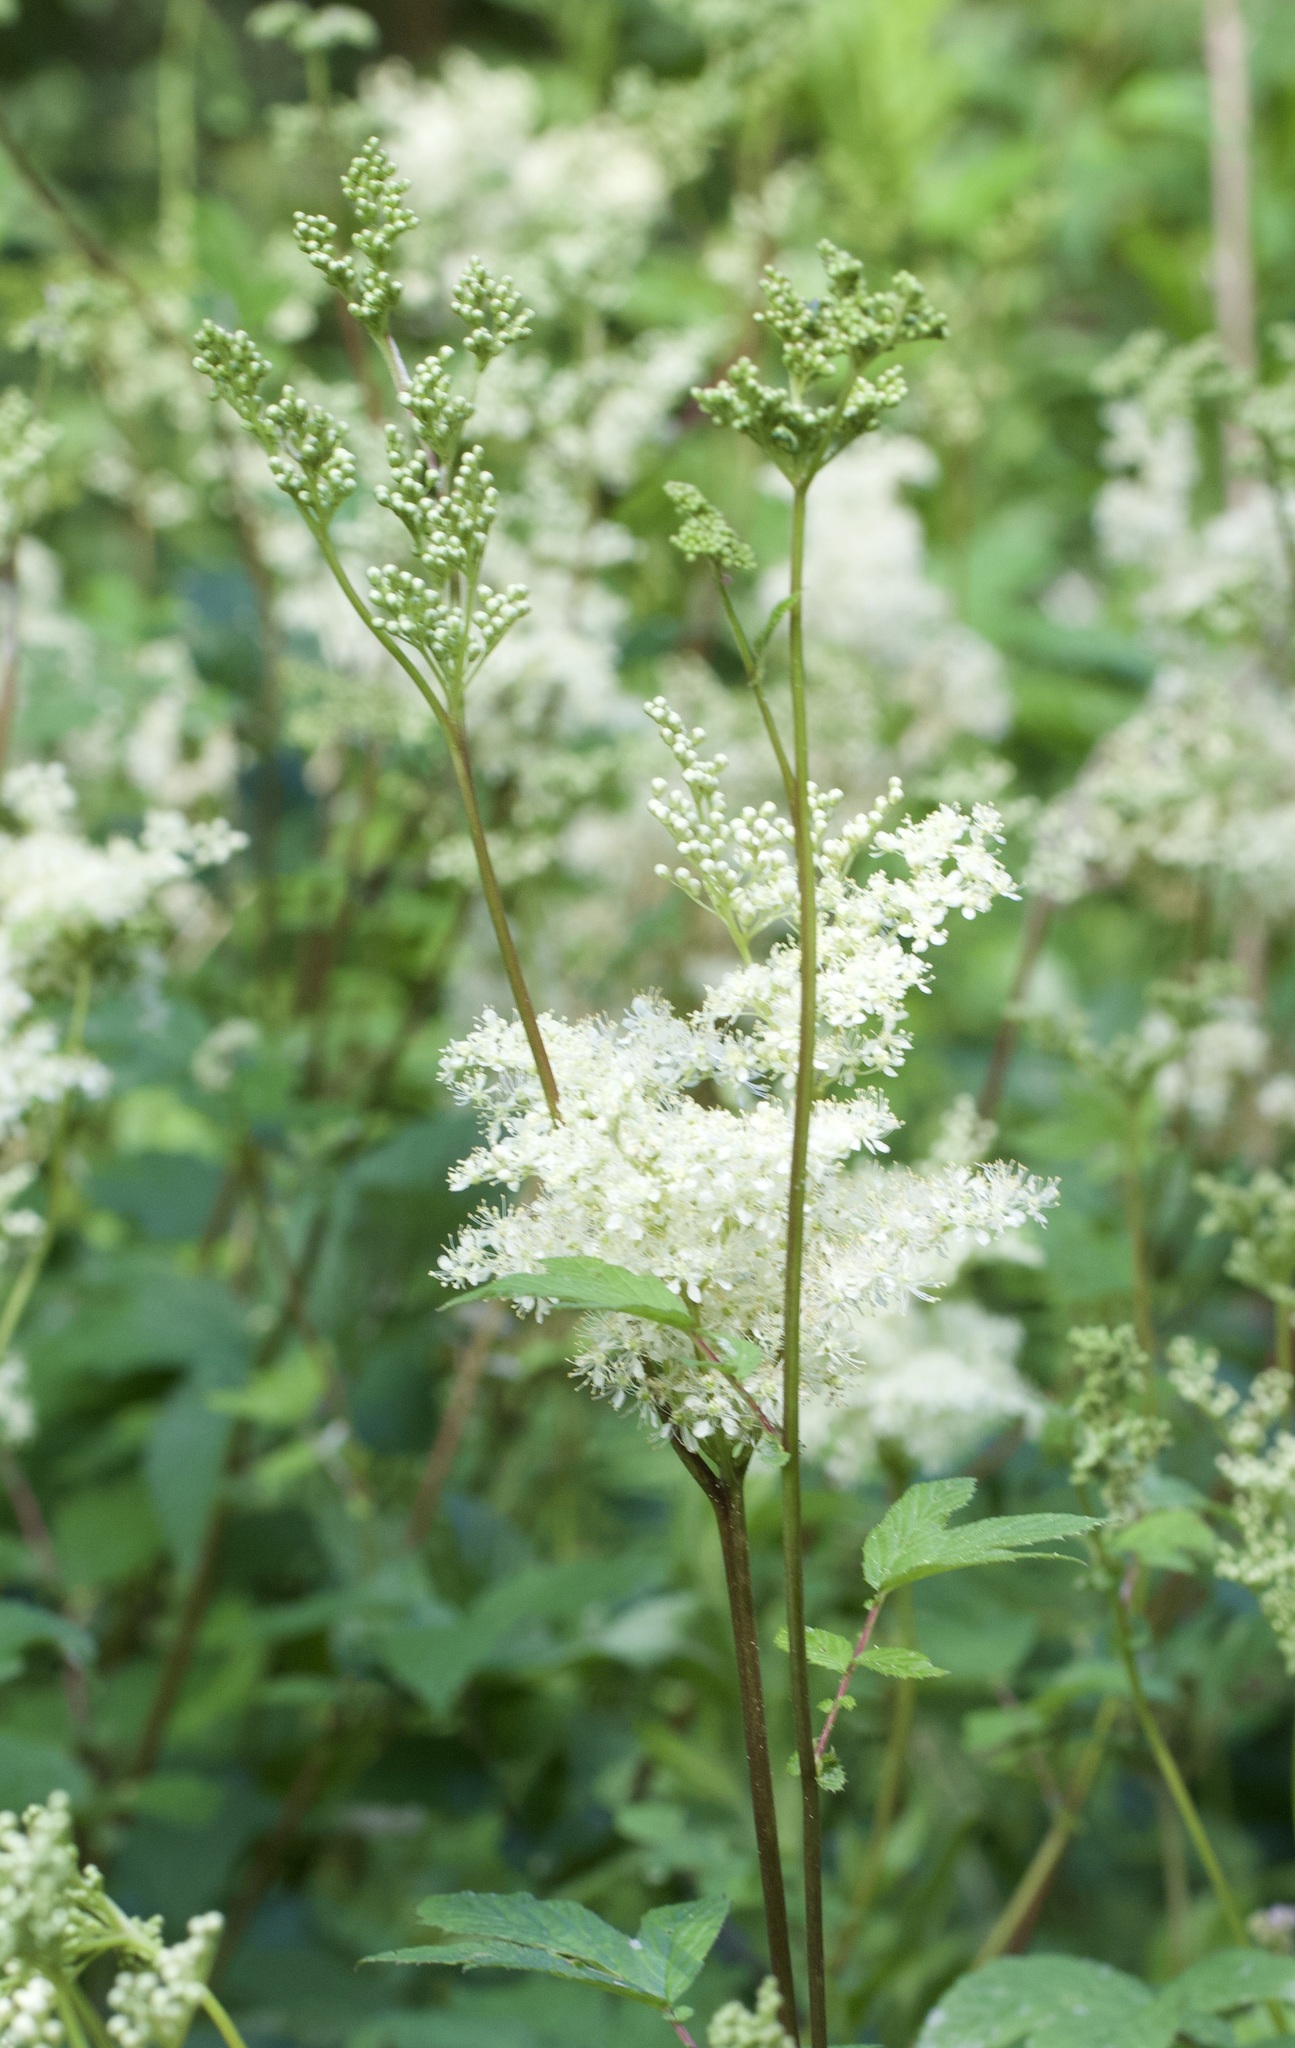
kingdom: Plantae
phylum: Tracheophyta
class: Magnoliopsida
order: Rosales
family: Rosaceae
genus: Filipendula
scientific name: Filipendula ulmaria
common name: Meadowsweet
